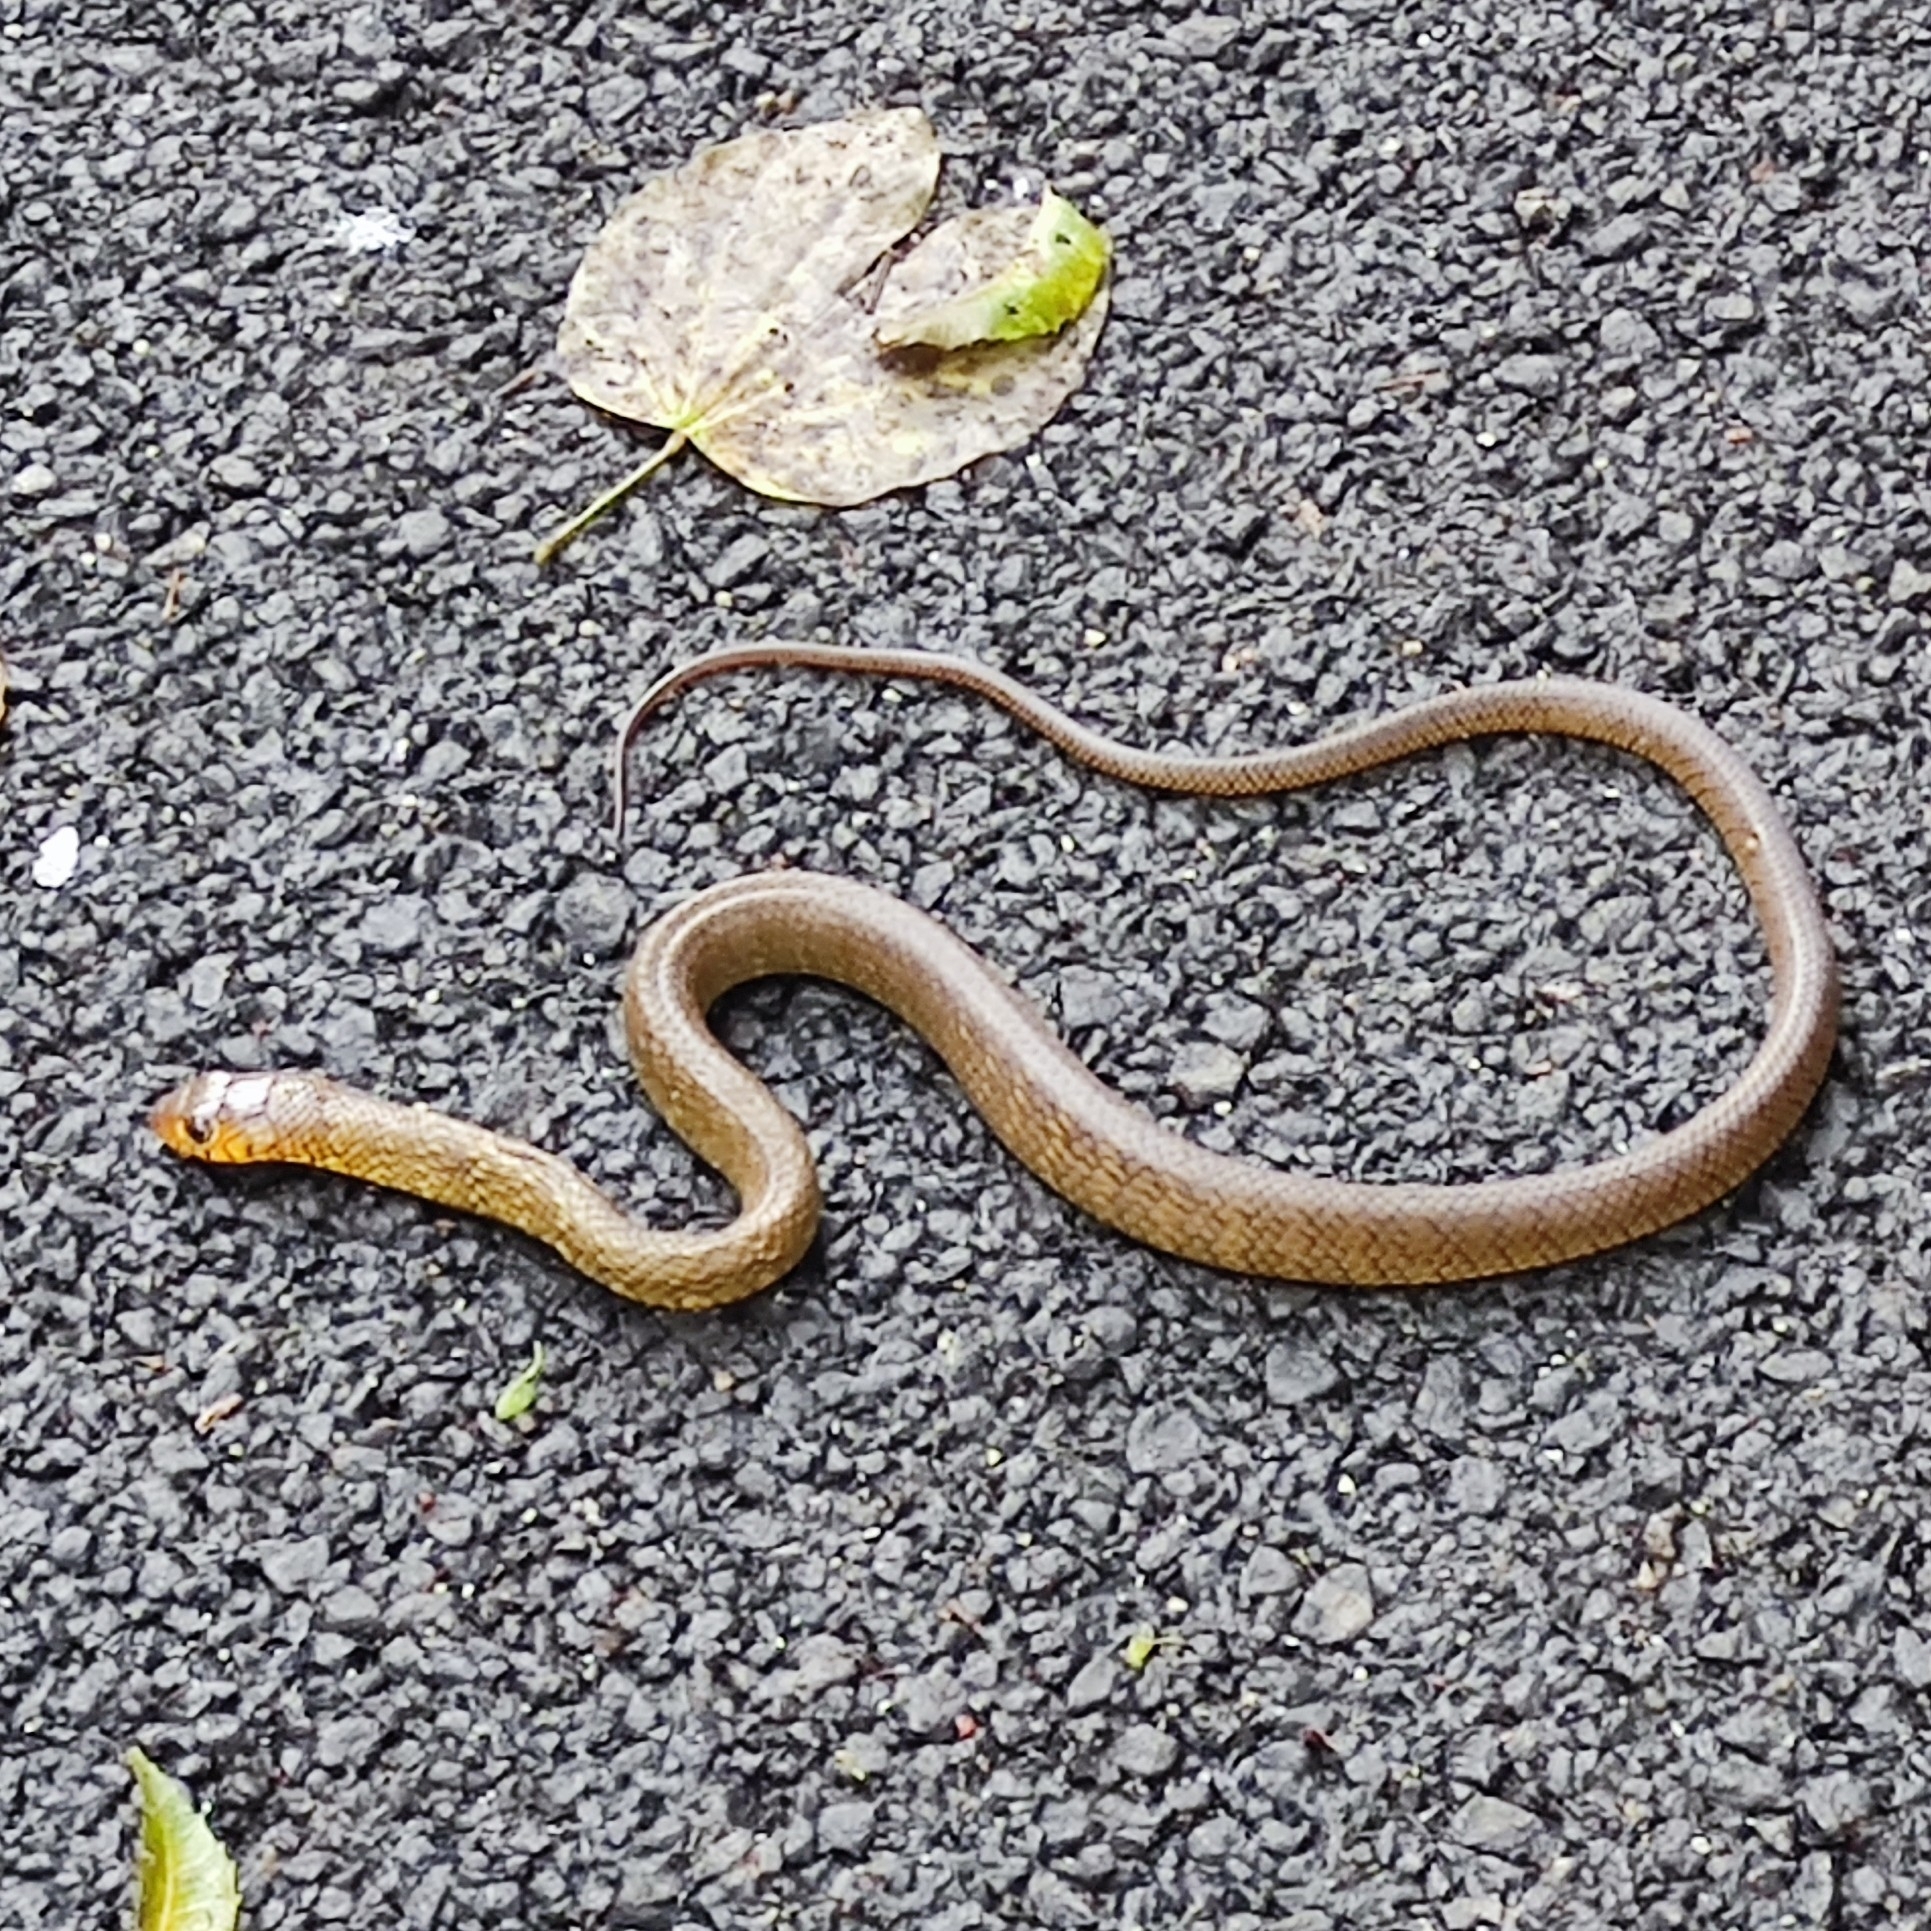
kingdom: Animalia
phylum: Chordata
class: Squamata
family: Colubridae
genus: Ptyas
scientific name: Ptyas mucosa
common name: Oriental ratsnake
